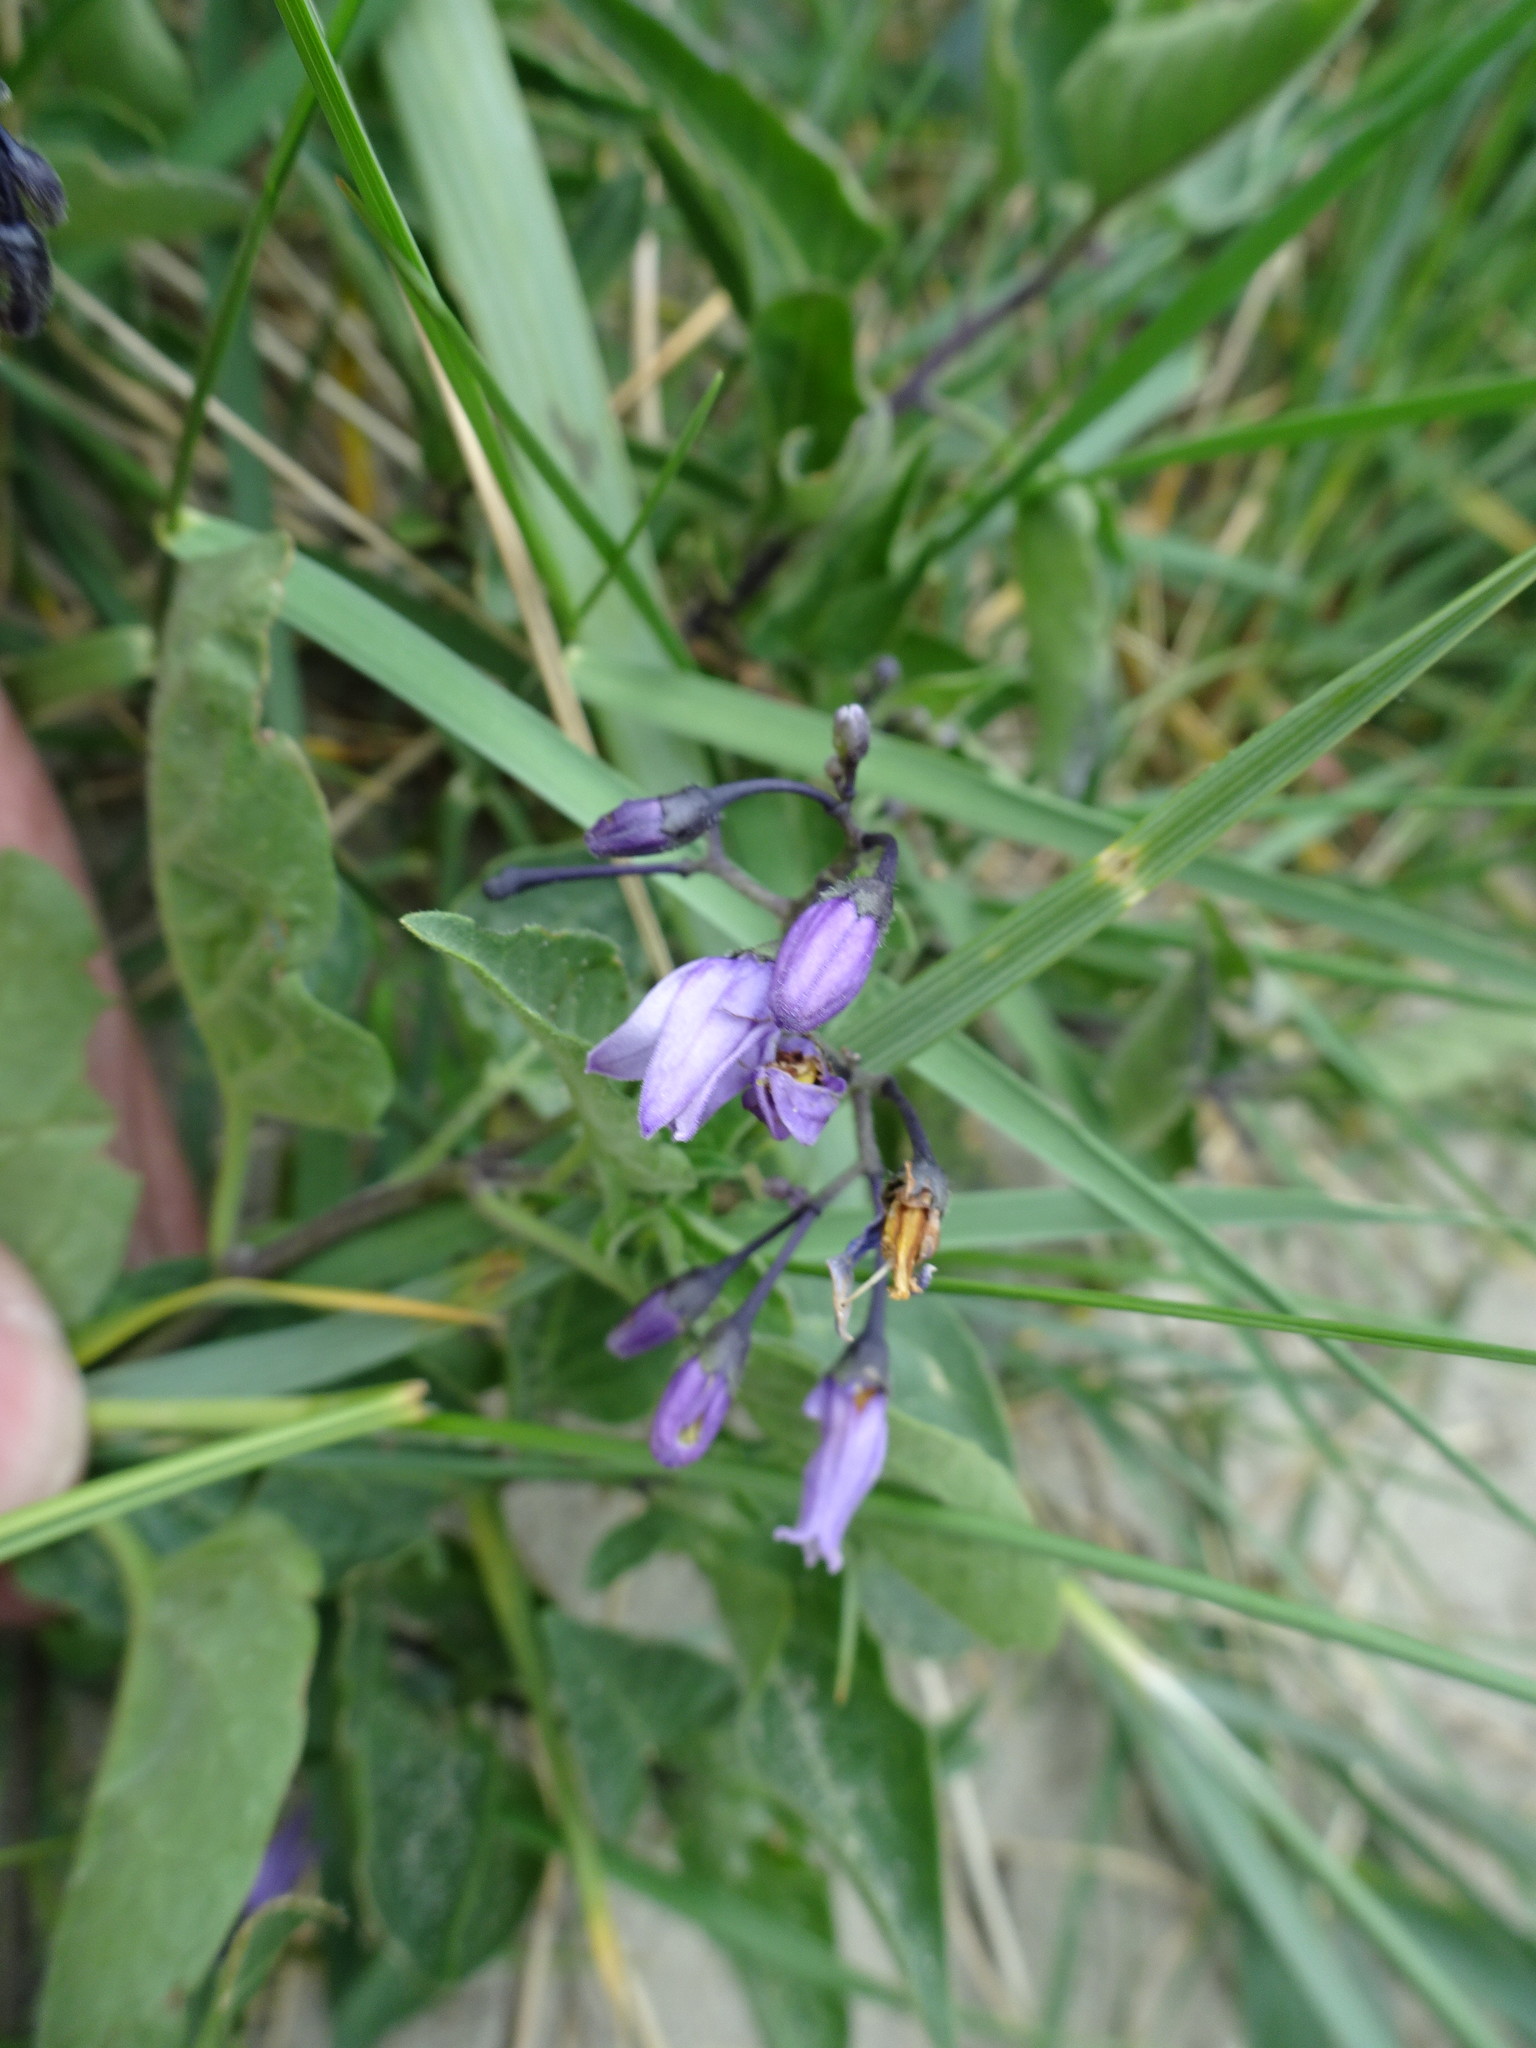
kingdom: Plantae
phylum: Tracheophyta
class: Magnoliopsida
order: Solanales
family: Solanaceae
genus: Solanum
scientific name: Solanum dulcamara
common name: Climbing nightshade
